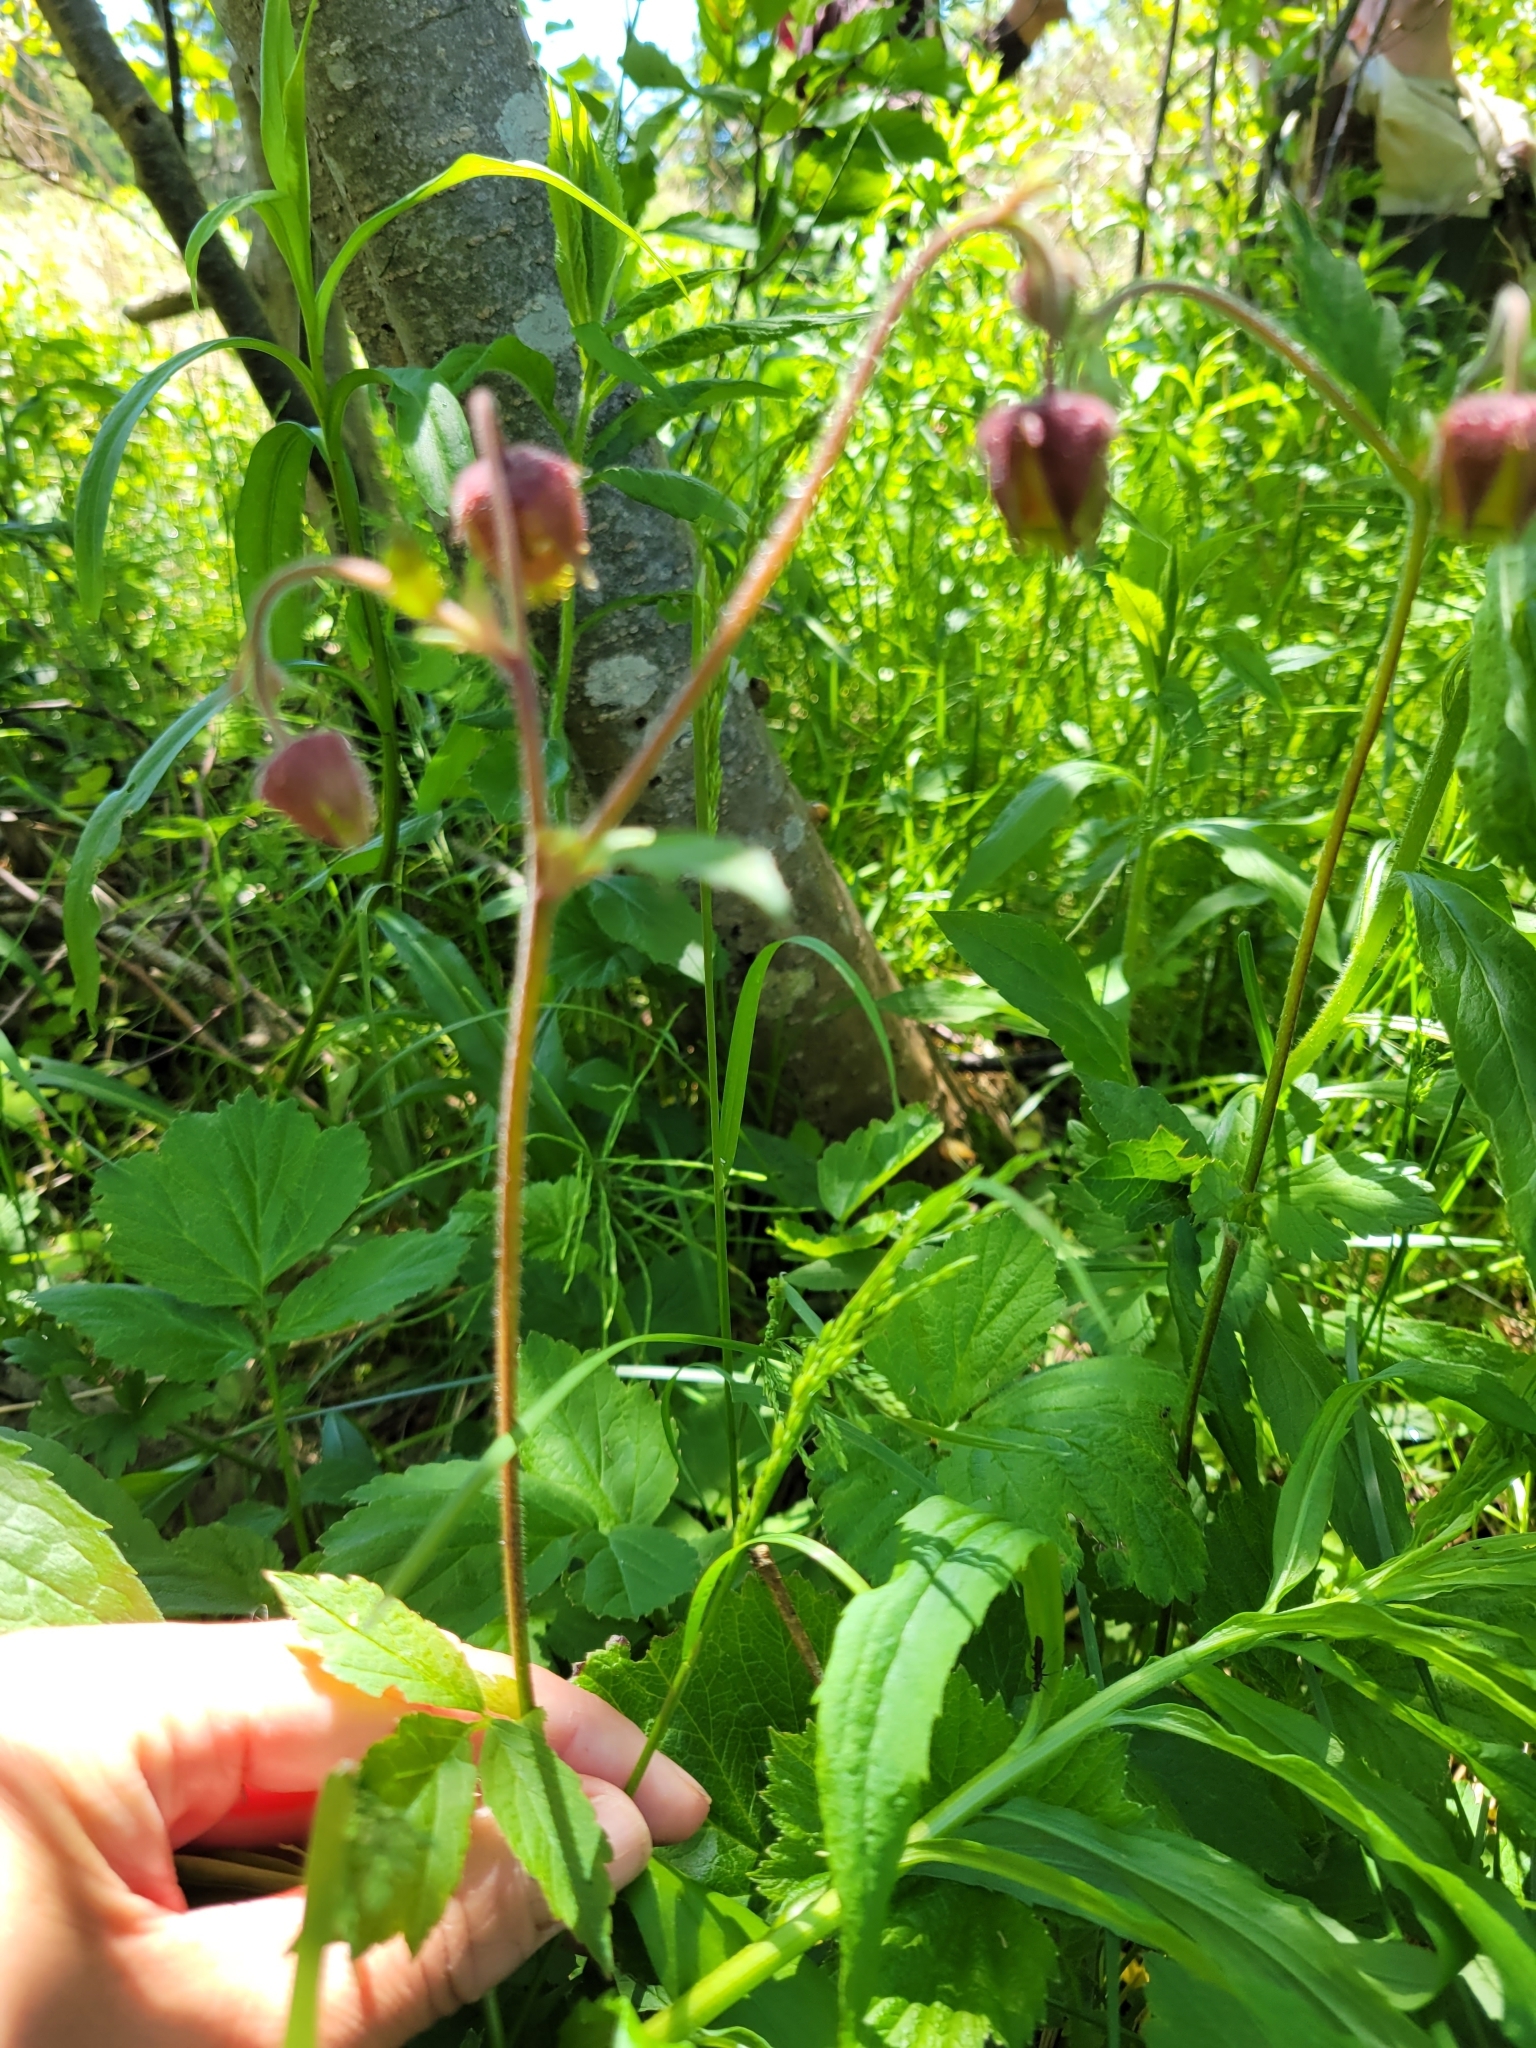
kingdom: Plantae
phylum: Tracheophyta
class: Magnoliopsida
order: Rosales
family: Rosaceae
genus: Geum
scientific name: Geum rivale
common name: Water avens
